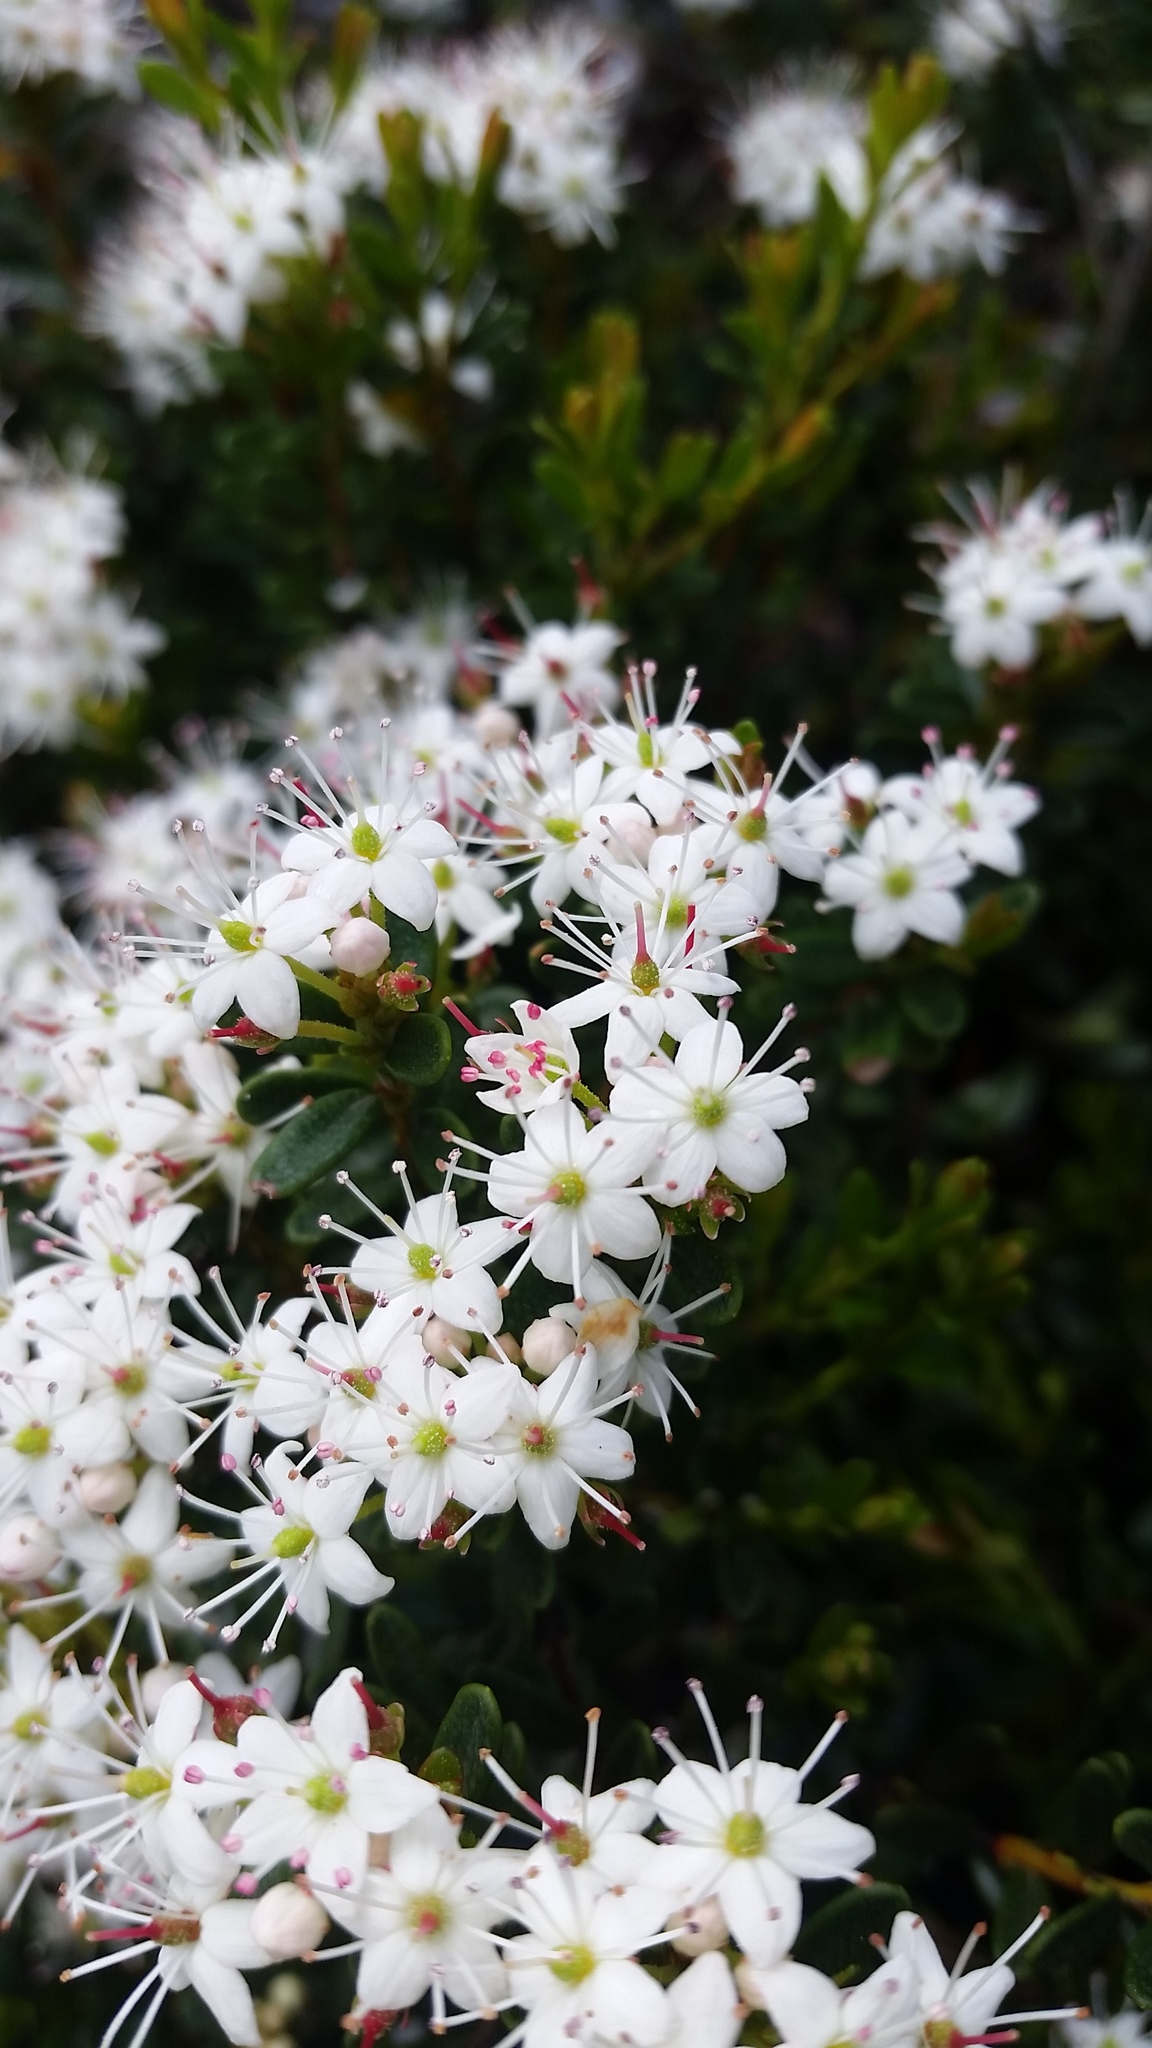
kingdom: Plantae
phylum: Tracheophyta
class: Magnoliopsida
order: Ericales
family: Ericaceae
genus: Kalmia
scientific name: Kalmia buxifolia
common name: Sandmyrtle
